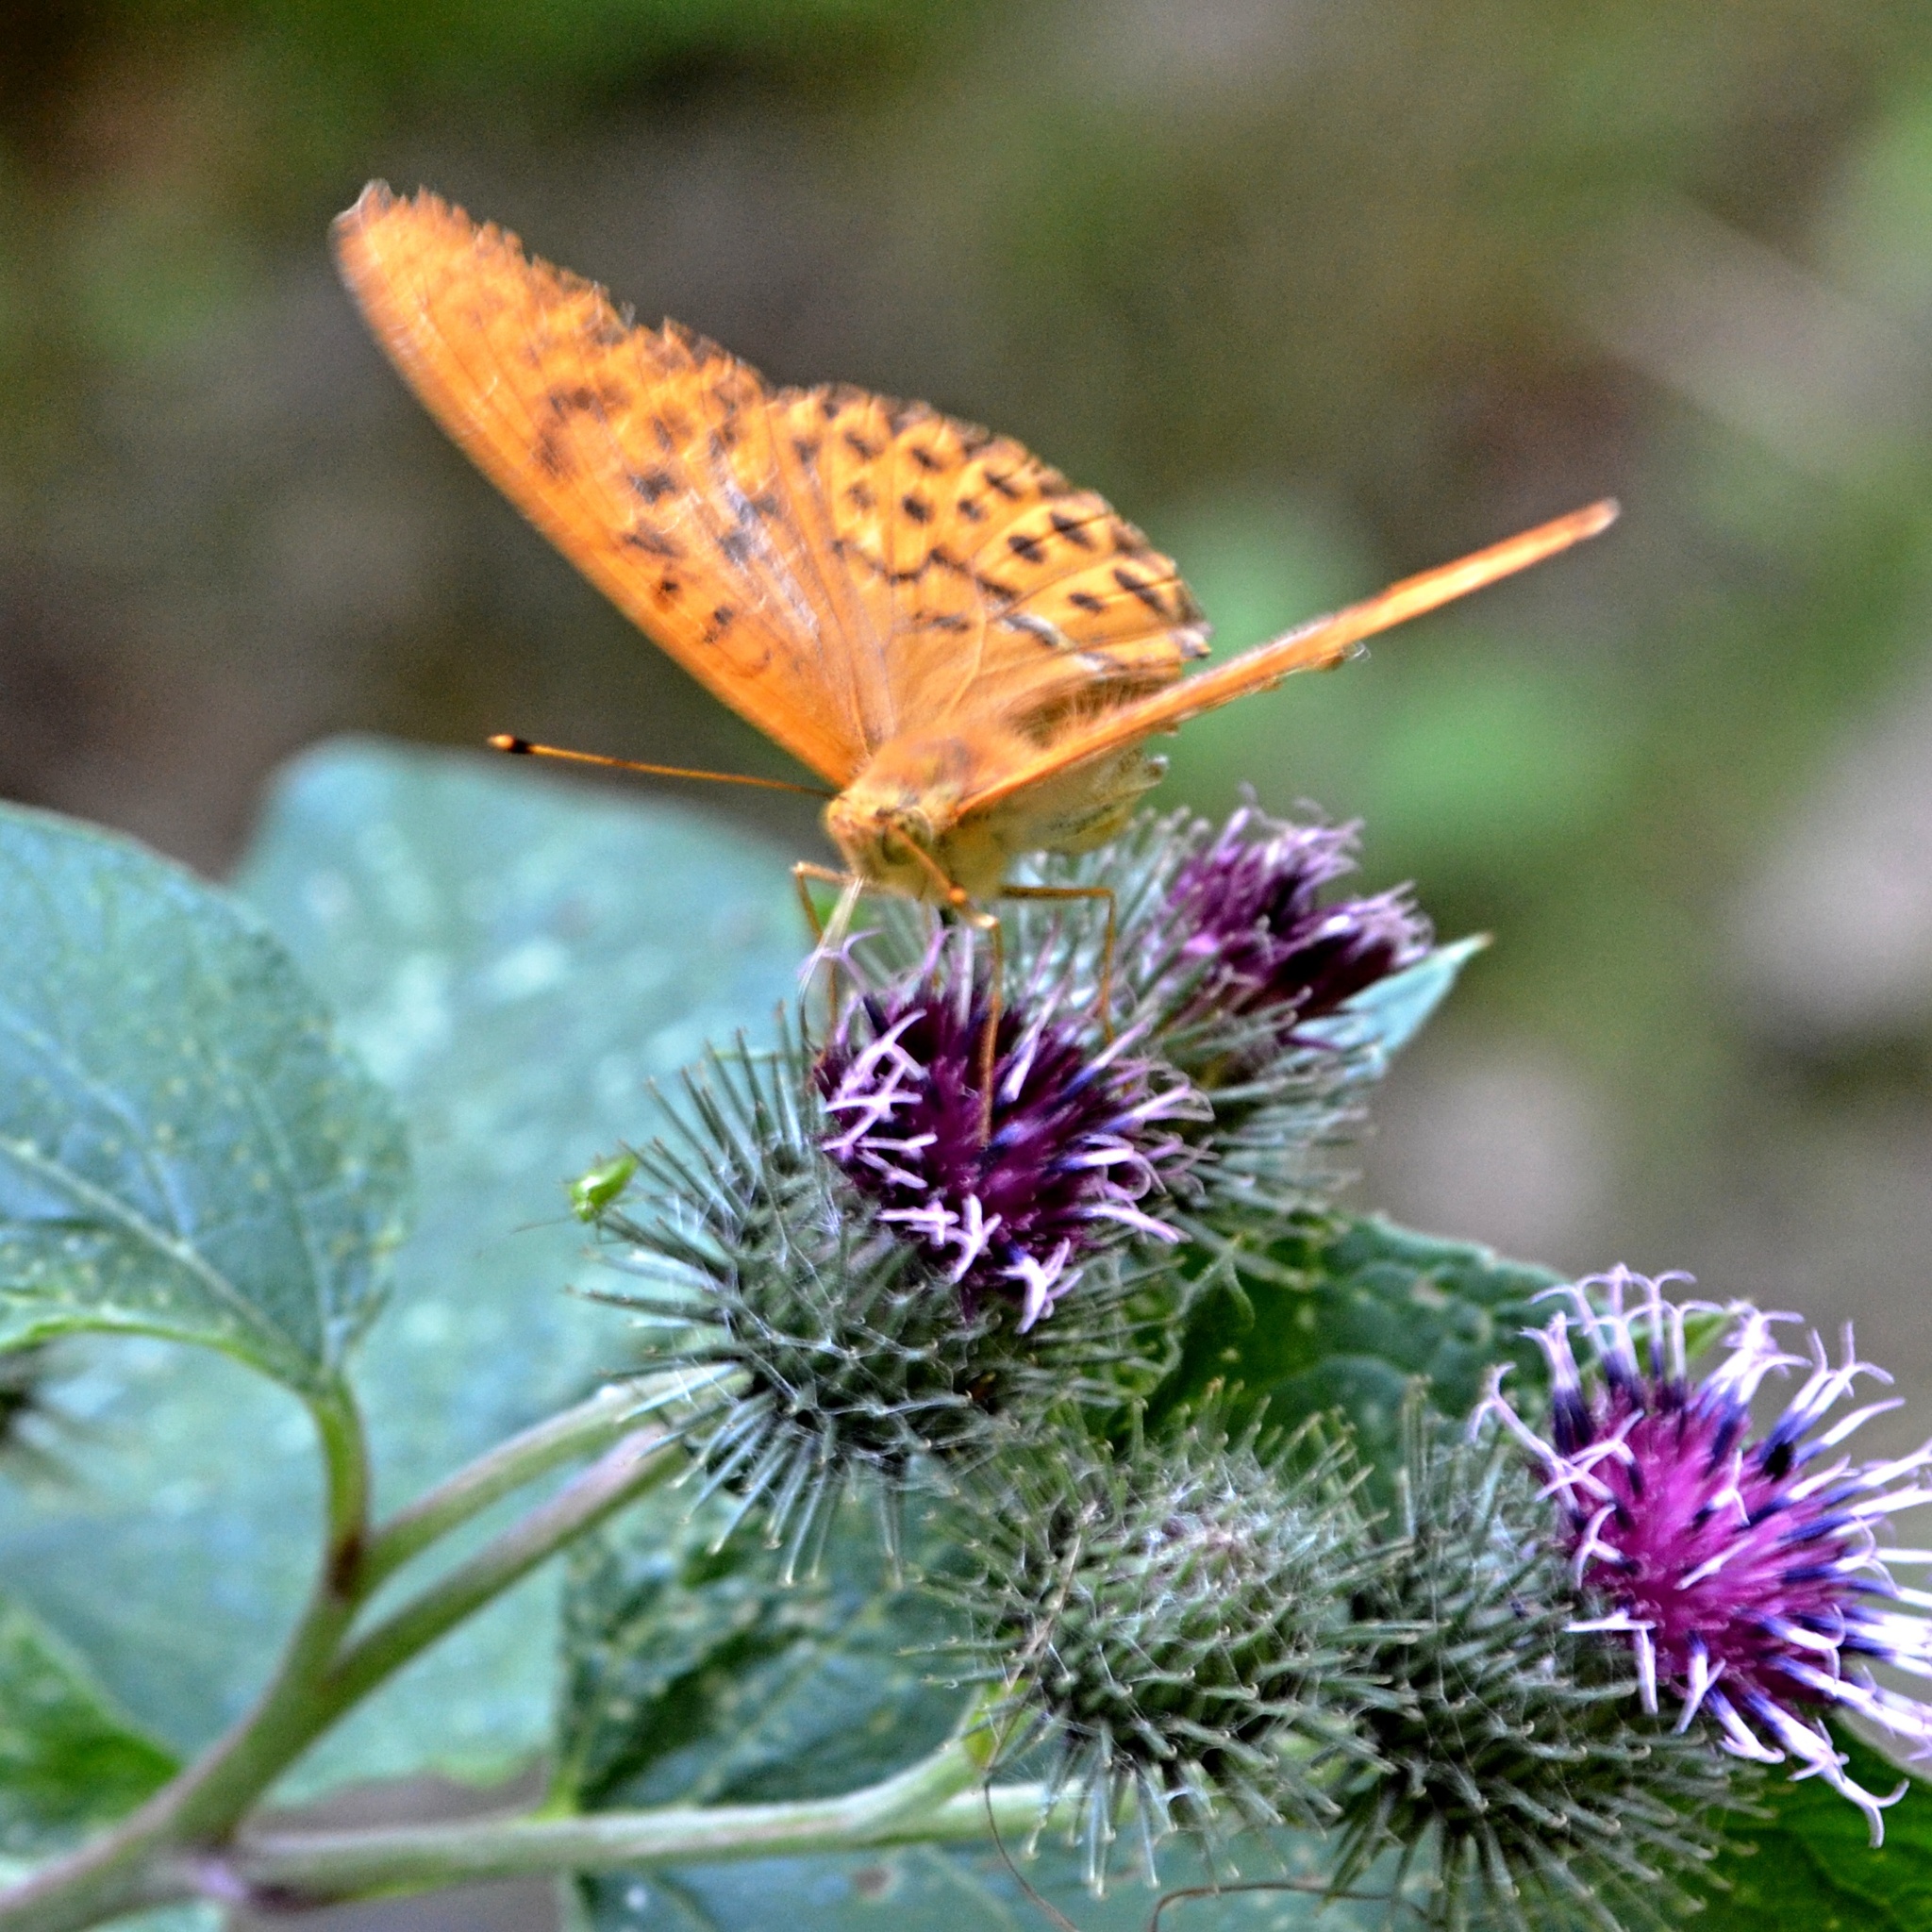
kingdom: Animalia
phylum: Arthropoda
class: Insecta
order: Lepidoptera
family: Nymphalidae
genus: Argynnis
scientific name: Argynnis paphia
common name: Silver-washed fritillary
